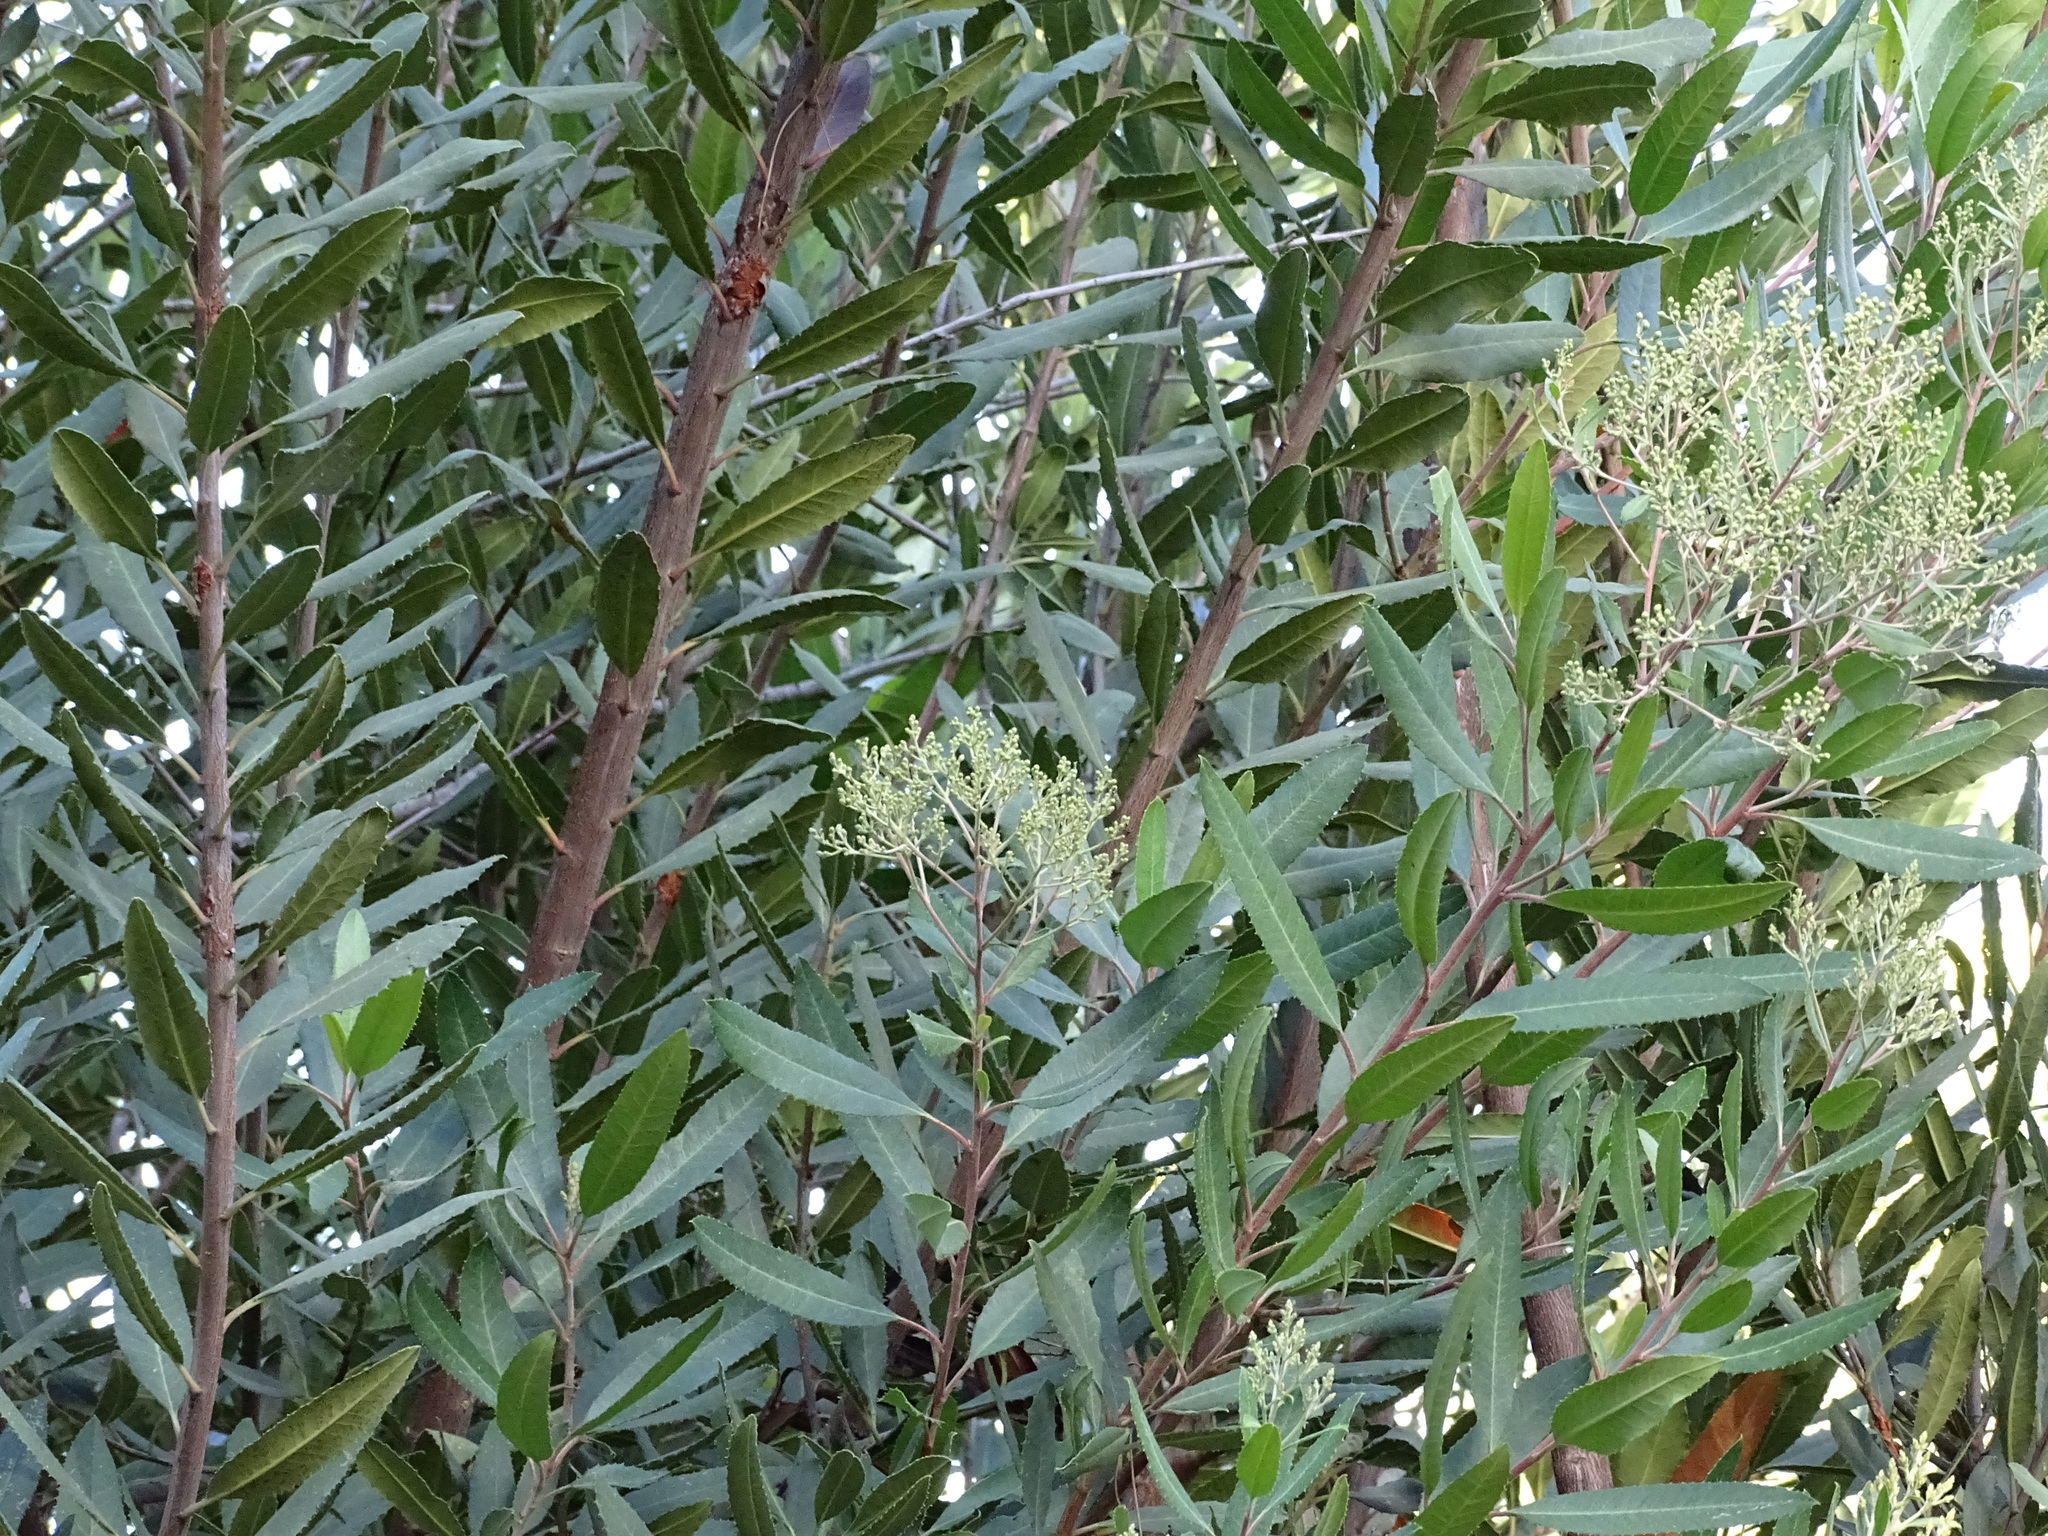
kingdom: Plantae
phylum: Tracheophyta
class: Magnoliopsida
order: Rosales
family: Rosaceae
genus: Heteromeles
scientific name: Heteromeles arbutifolia
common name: California-holly
